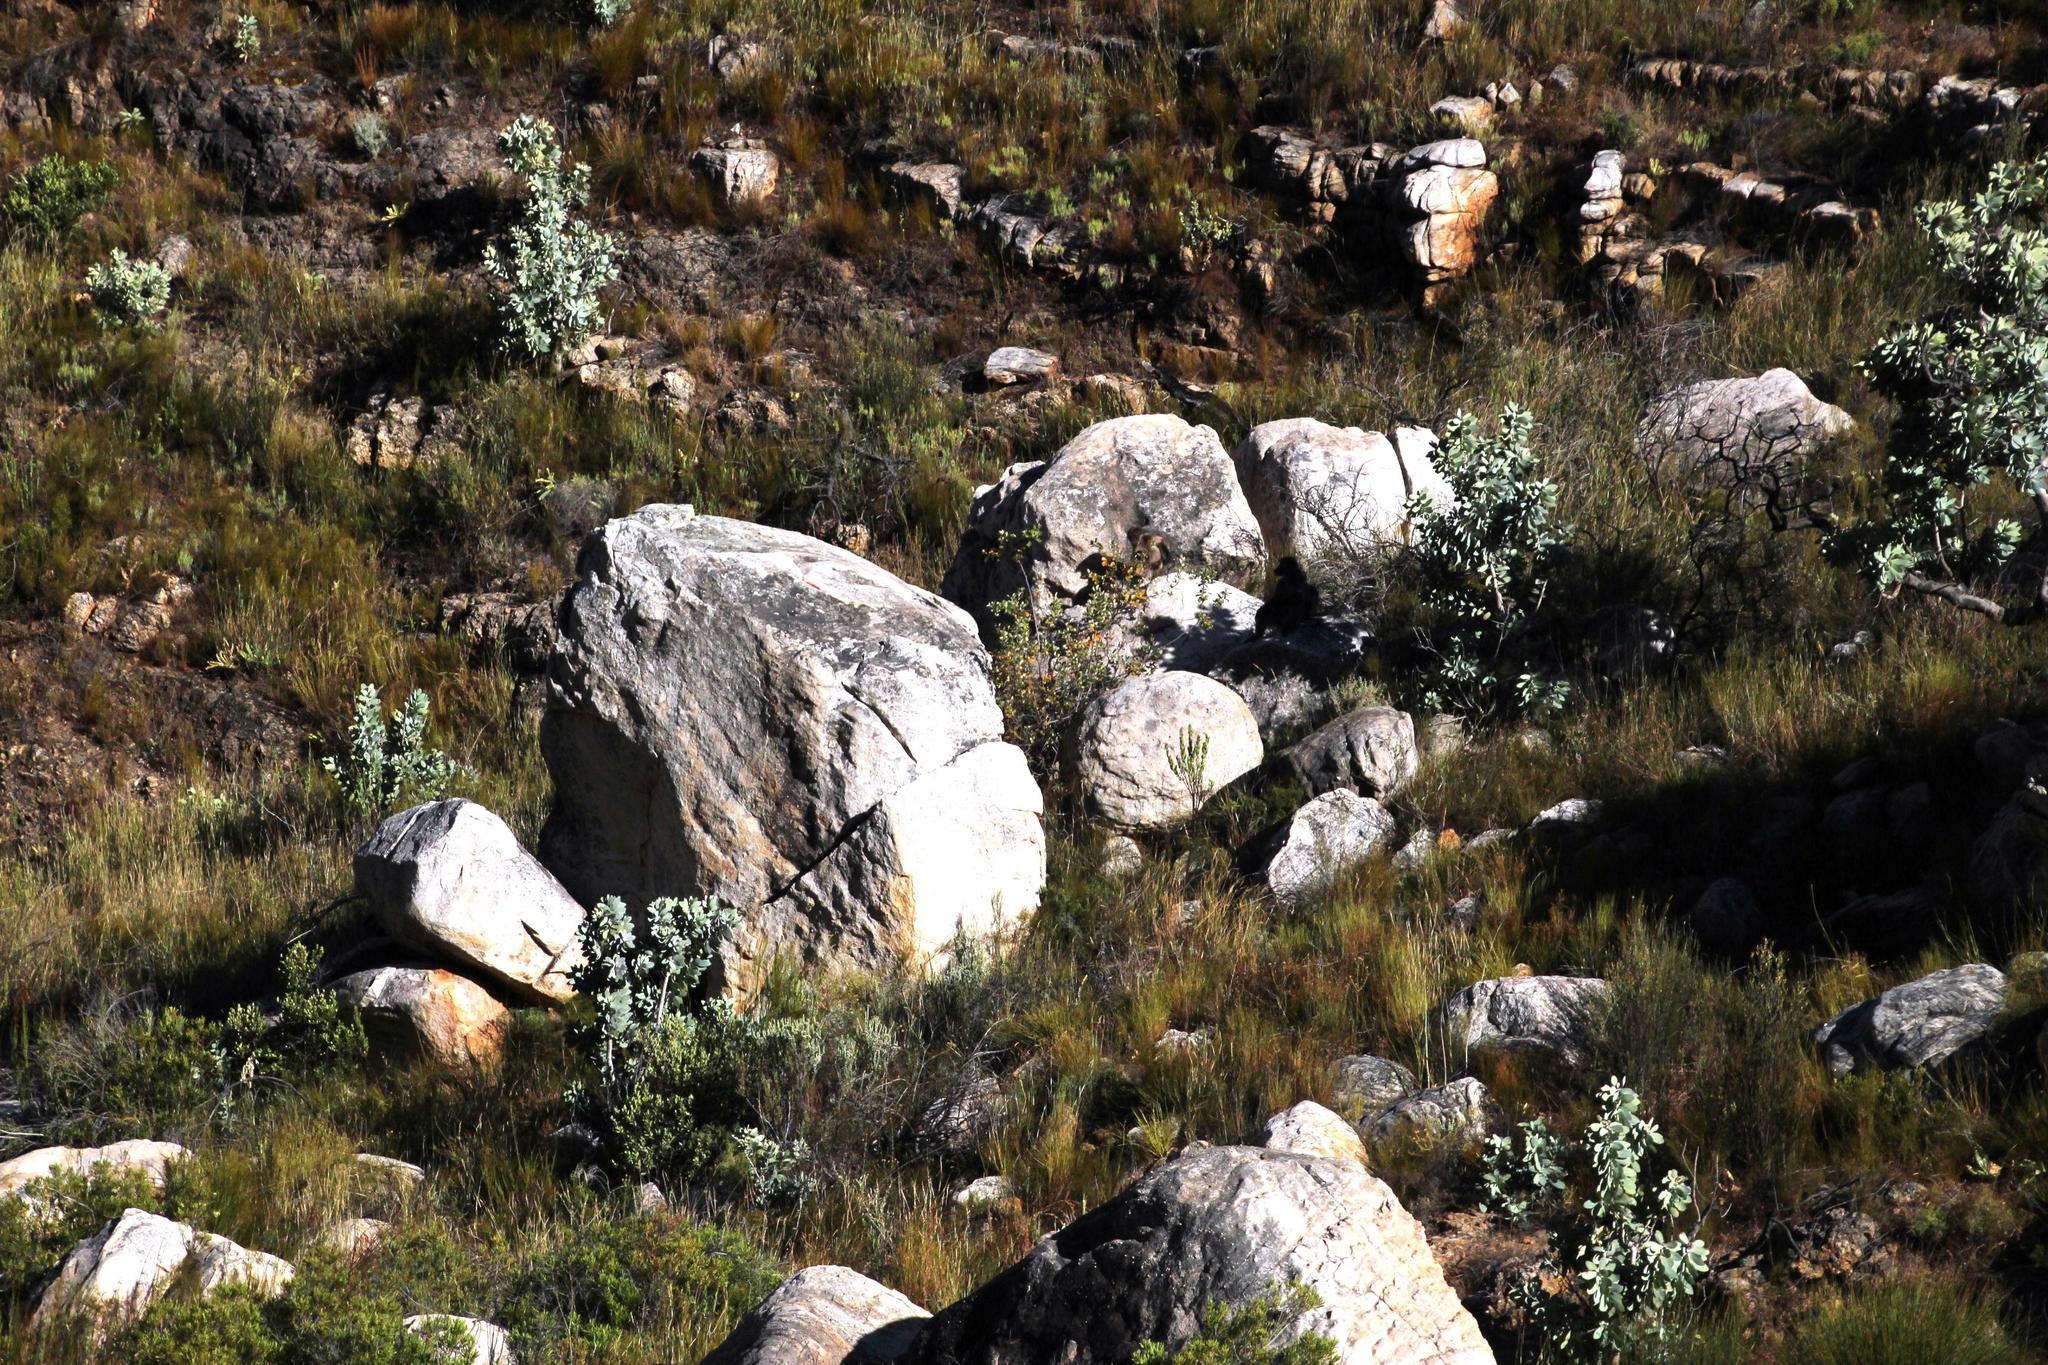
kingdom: Animalia
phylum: Chordata
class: Mammalia
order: Primates
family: Cercopithecidae
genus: Papio
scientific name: Papio ursinus
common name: Chacma baboon
